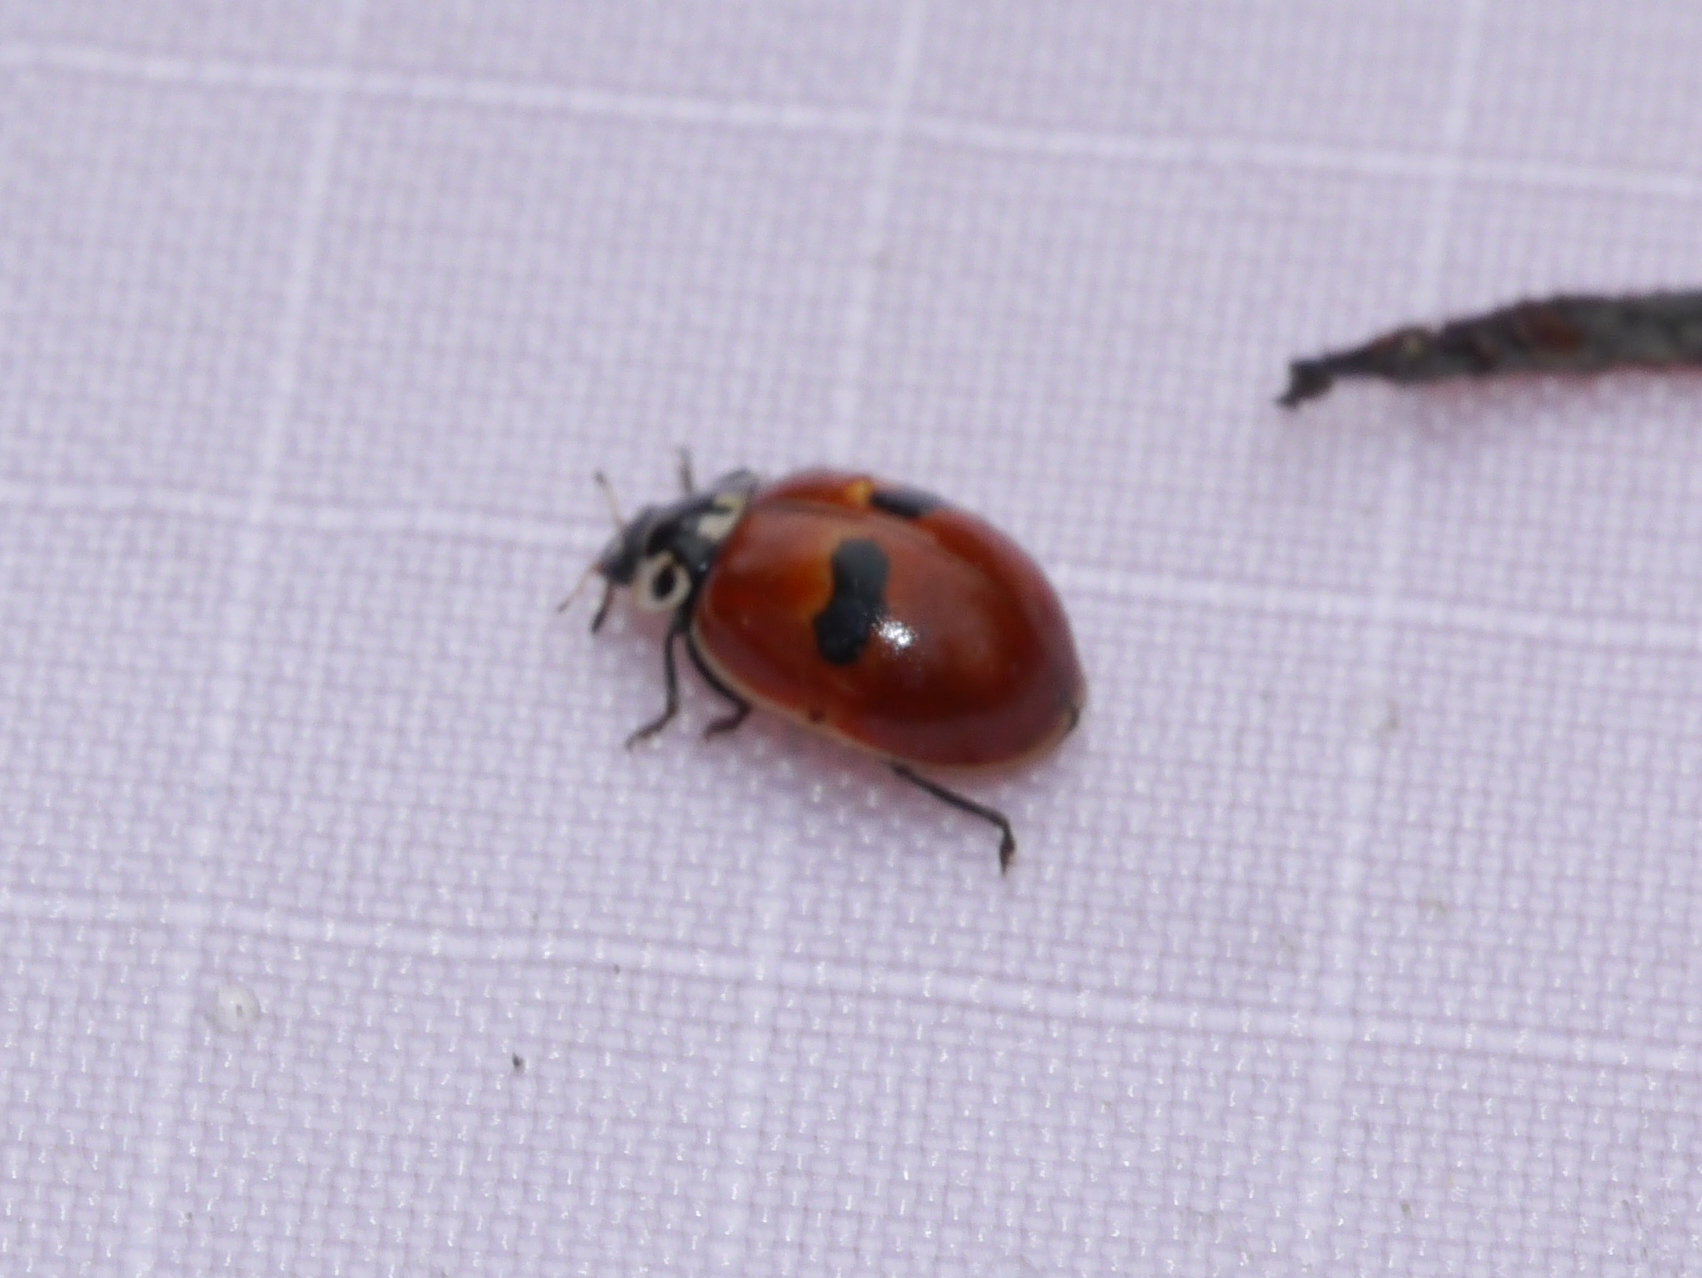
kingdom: Animalia
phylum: Arthropoda
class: Insecta
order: Coleoptera
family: Coccinellidae
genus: Adalia
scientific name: Adalia bipunctata
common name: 2-spot ladybird
